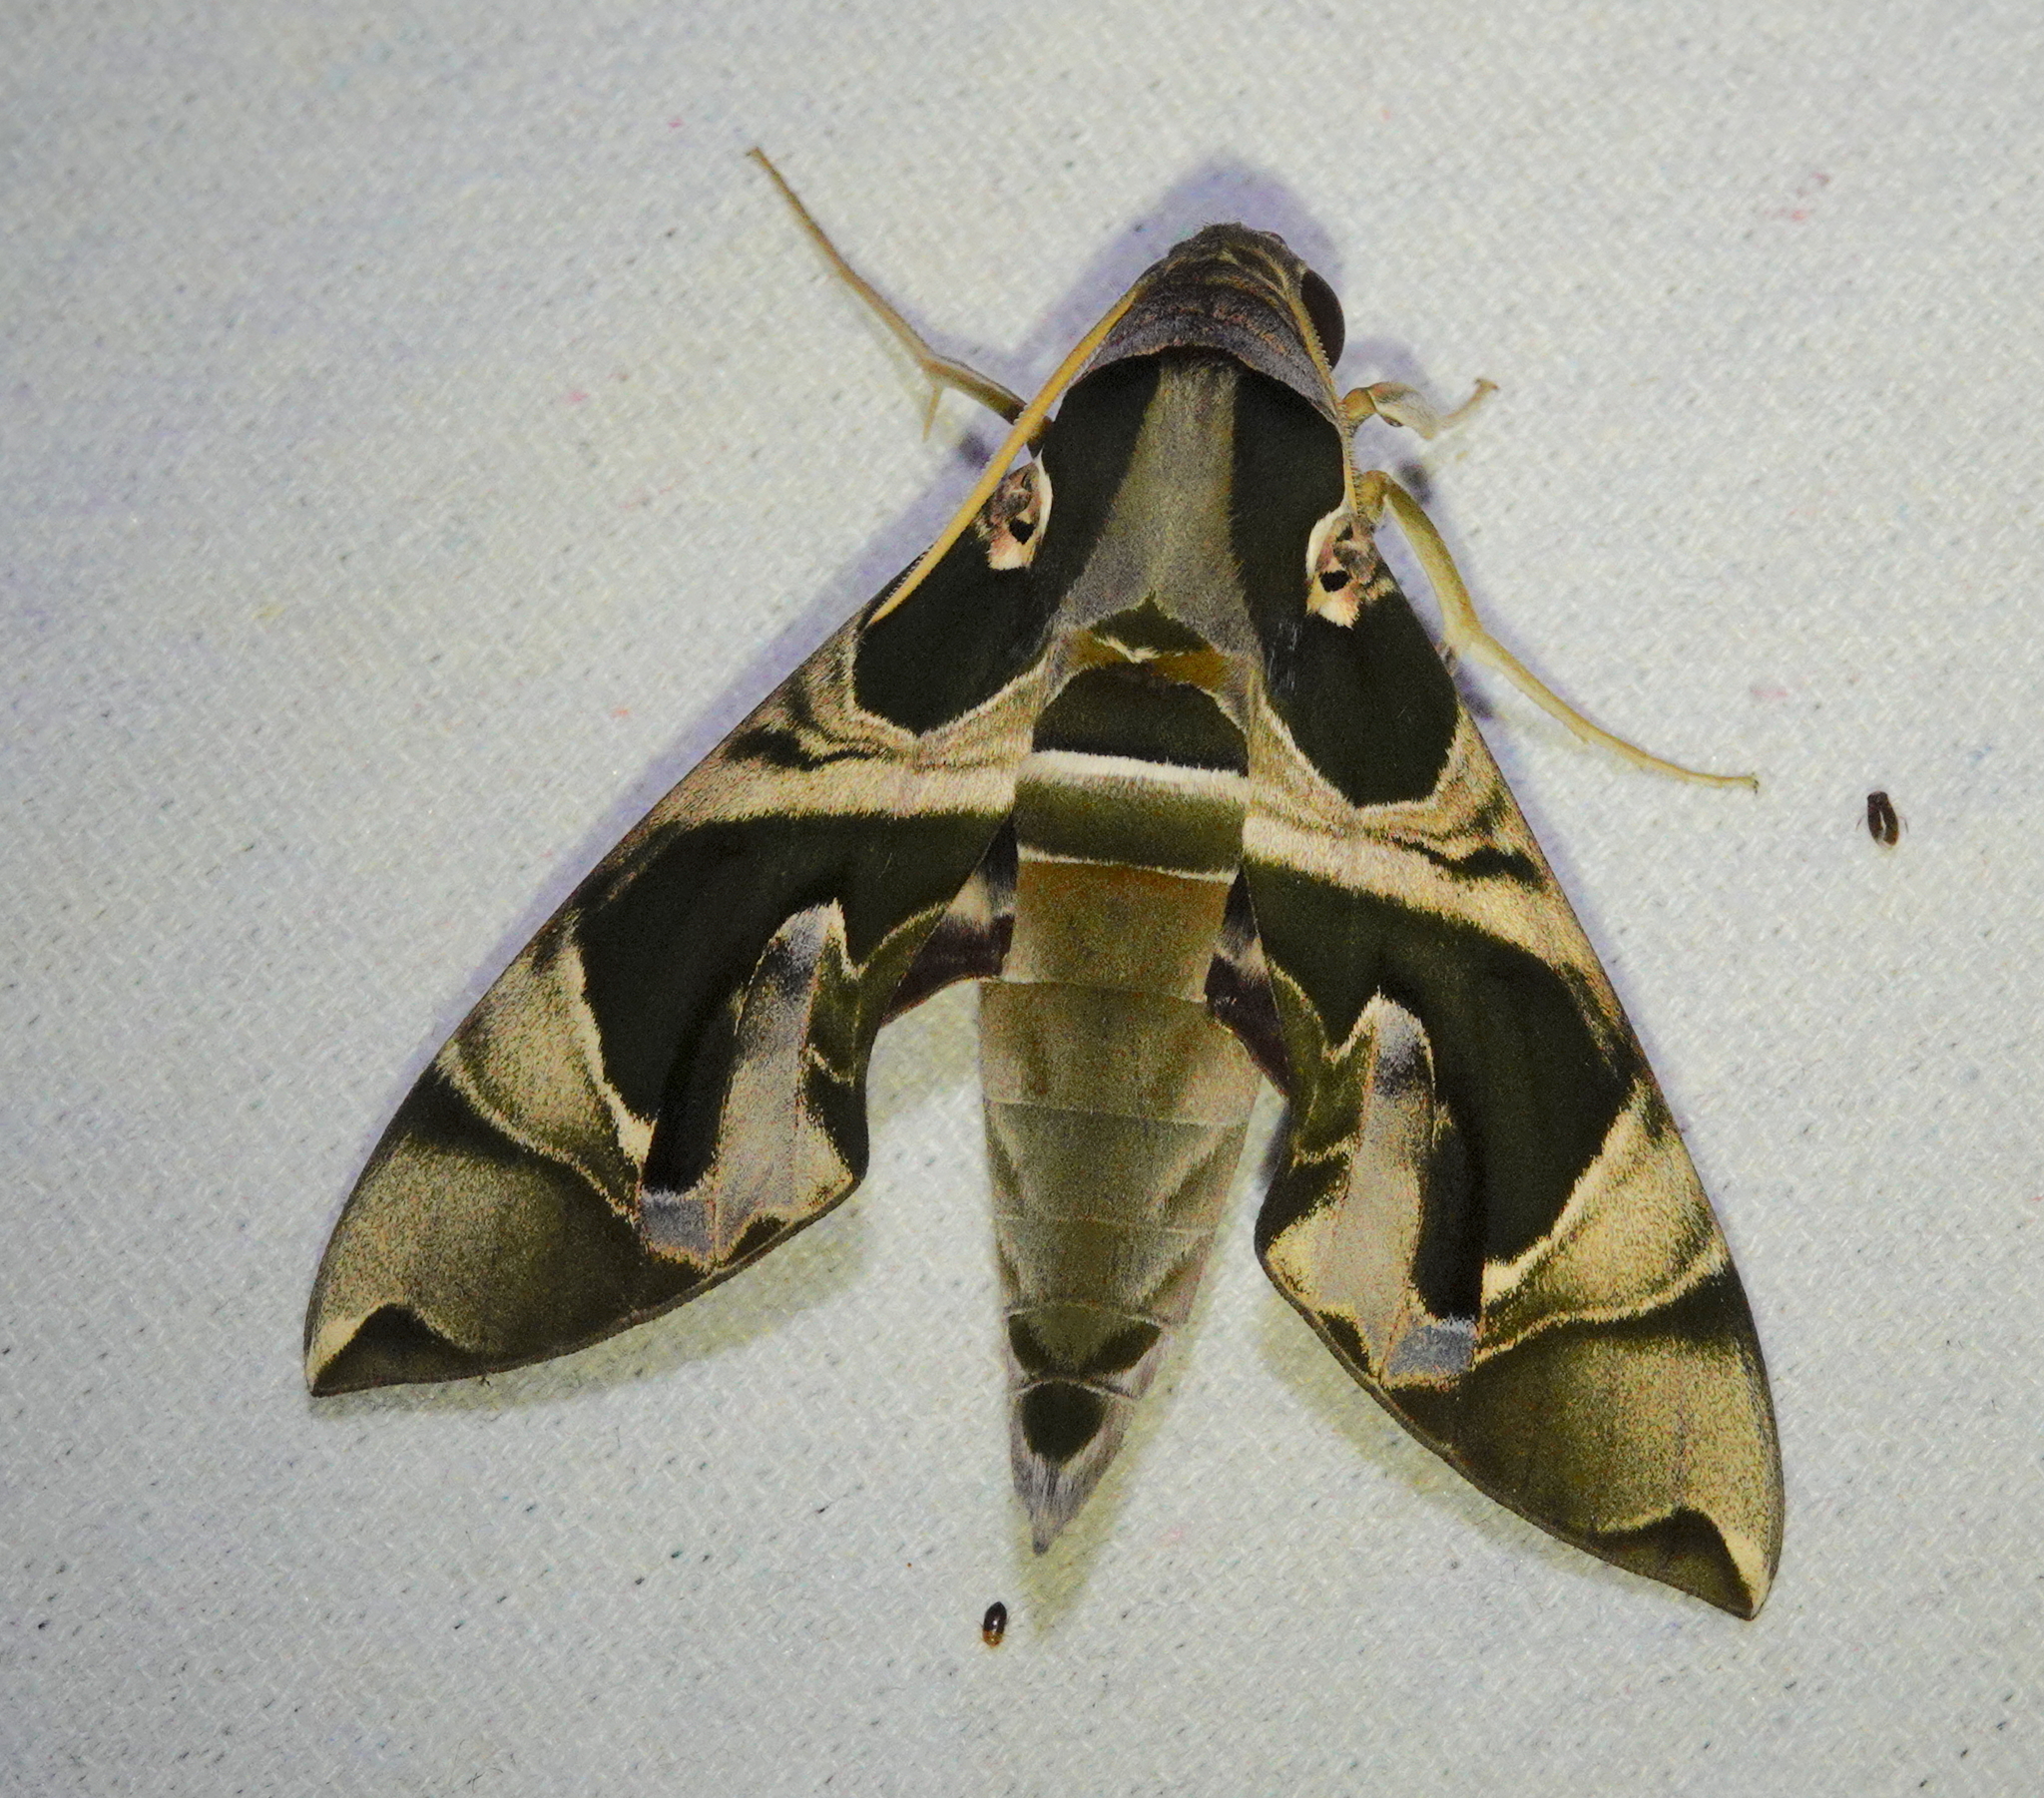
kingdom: Animalia
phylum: Arthropoda
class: Insecta
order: Lepidoptera
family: Sphingidae
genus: Daphnis
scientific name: Daphnis hypothous
